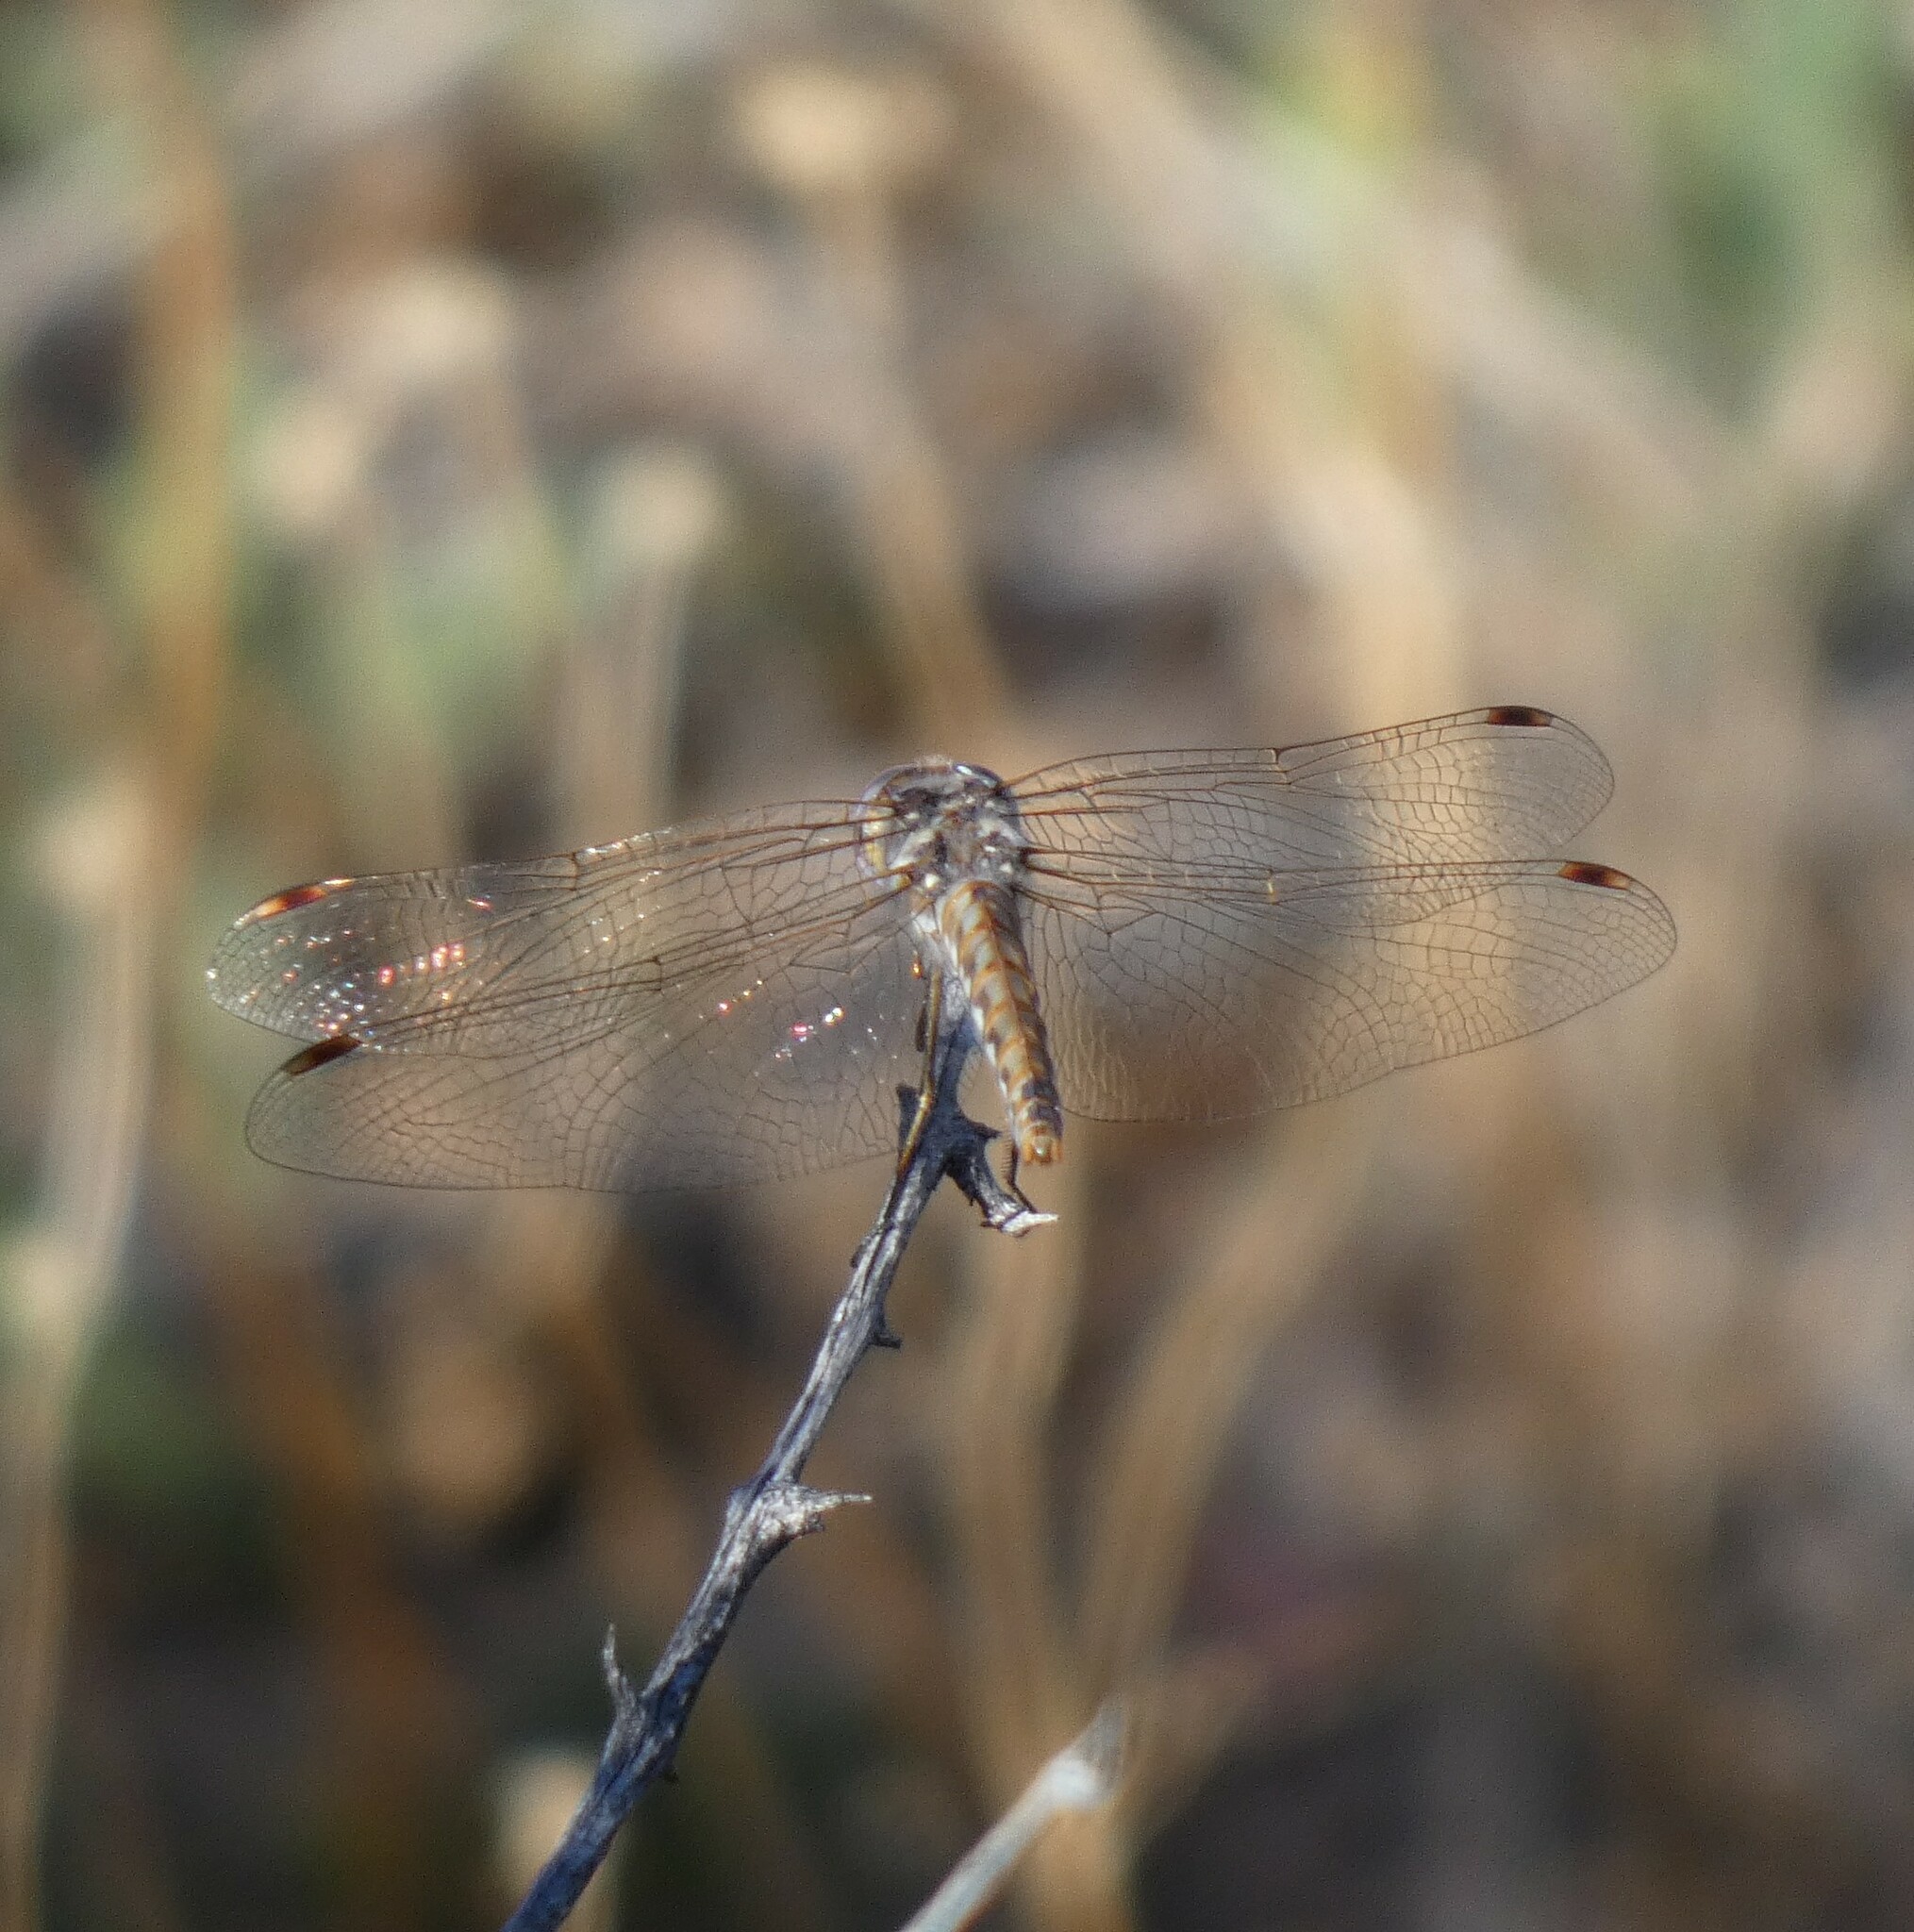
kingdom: Animalia
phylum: Arthropoda
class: Insecta
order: Odonata
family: Libellulidae
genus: Sympetrum
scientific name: Sympetrum corruptum
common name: Variegated meadowhawk
